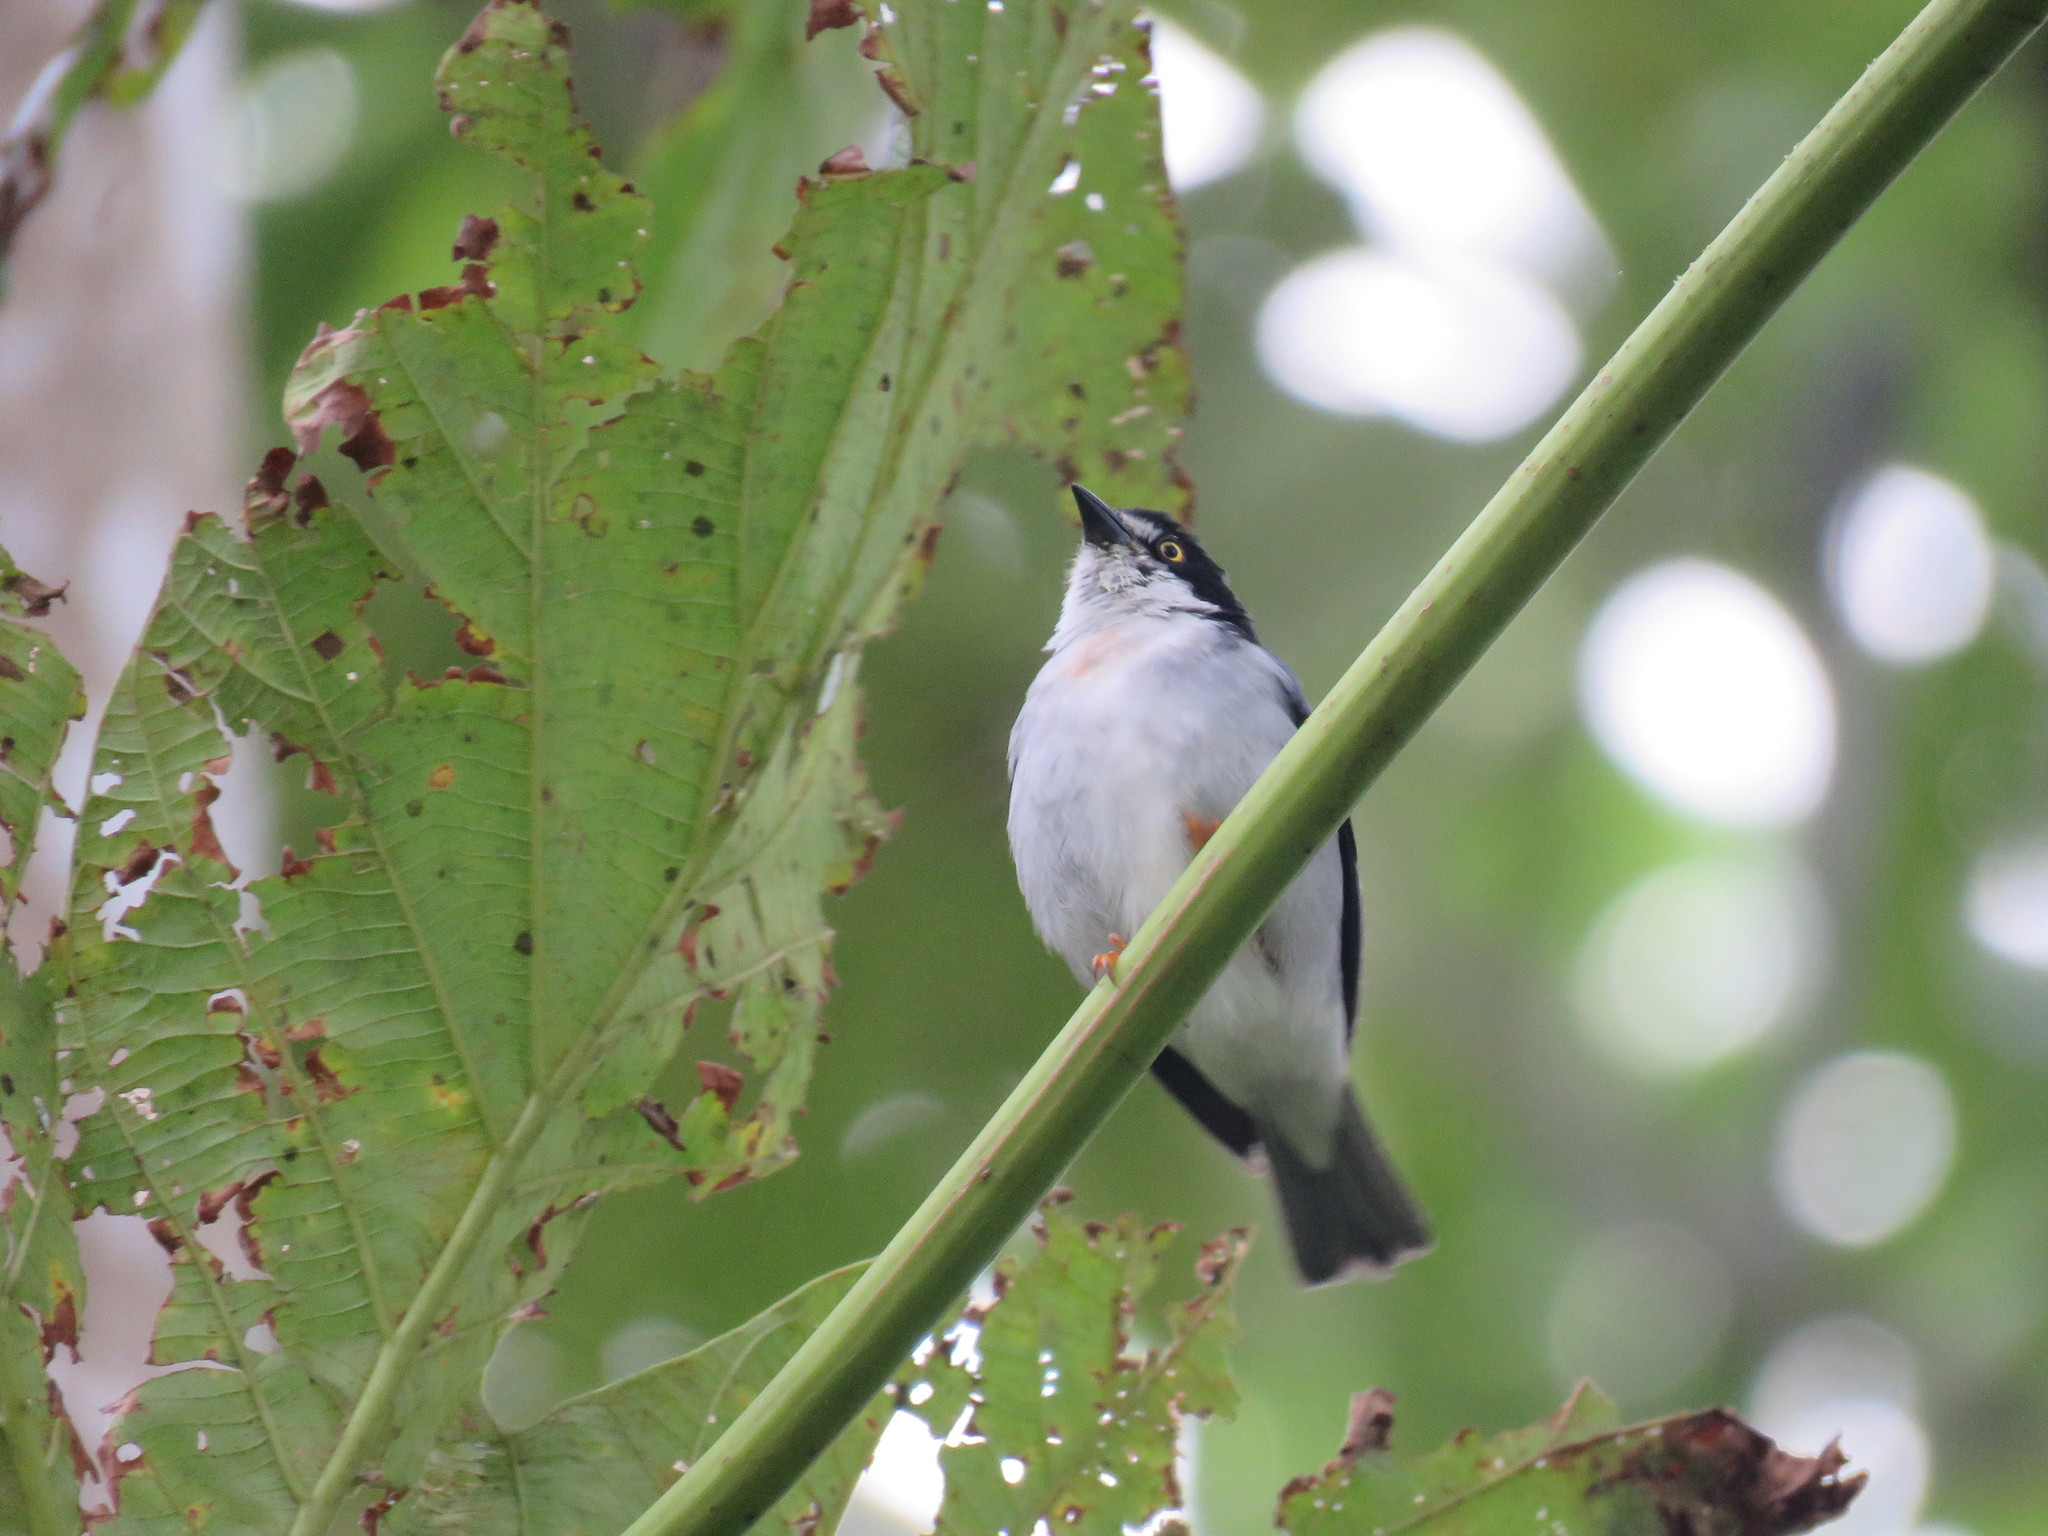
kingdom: Animalia
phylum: Chordata
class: Aves
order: Passeriformes
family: Thraupidae
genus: Nemosia
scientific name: Nemosia pileata
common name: Hooded tanager
